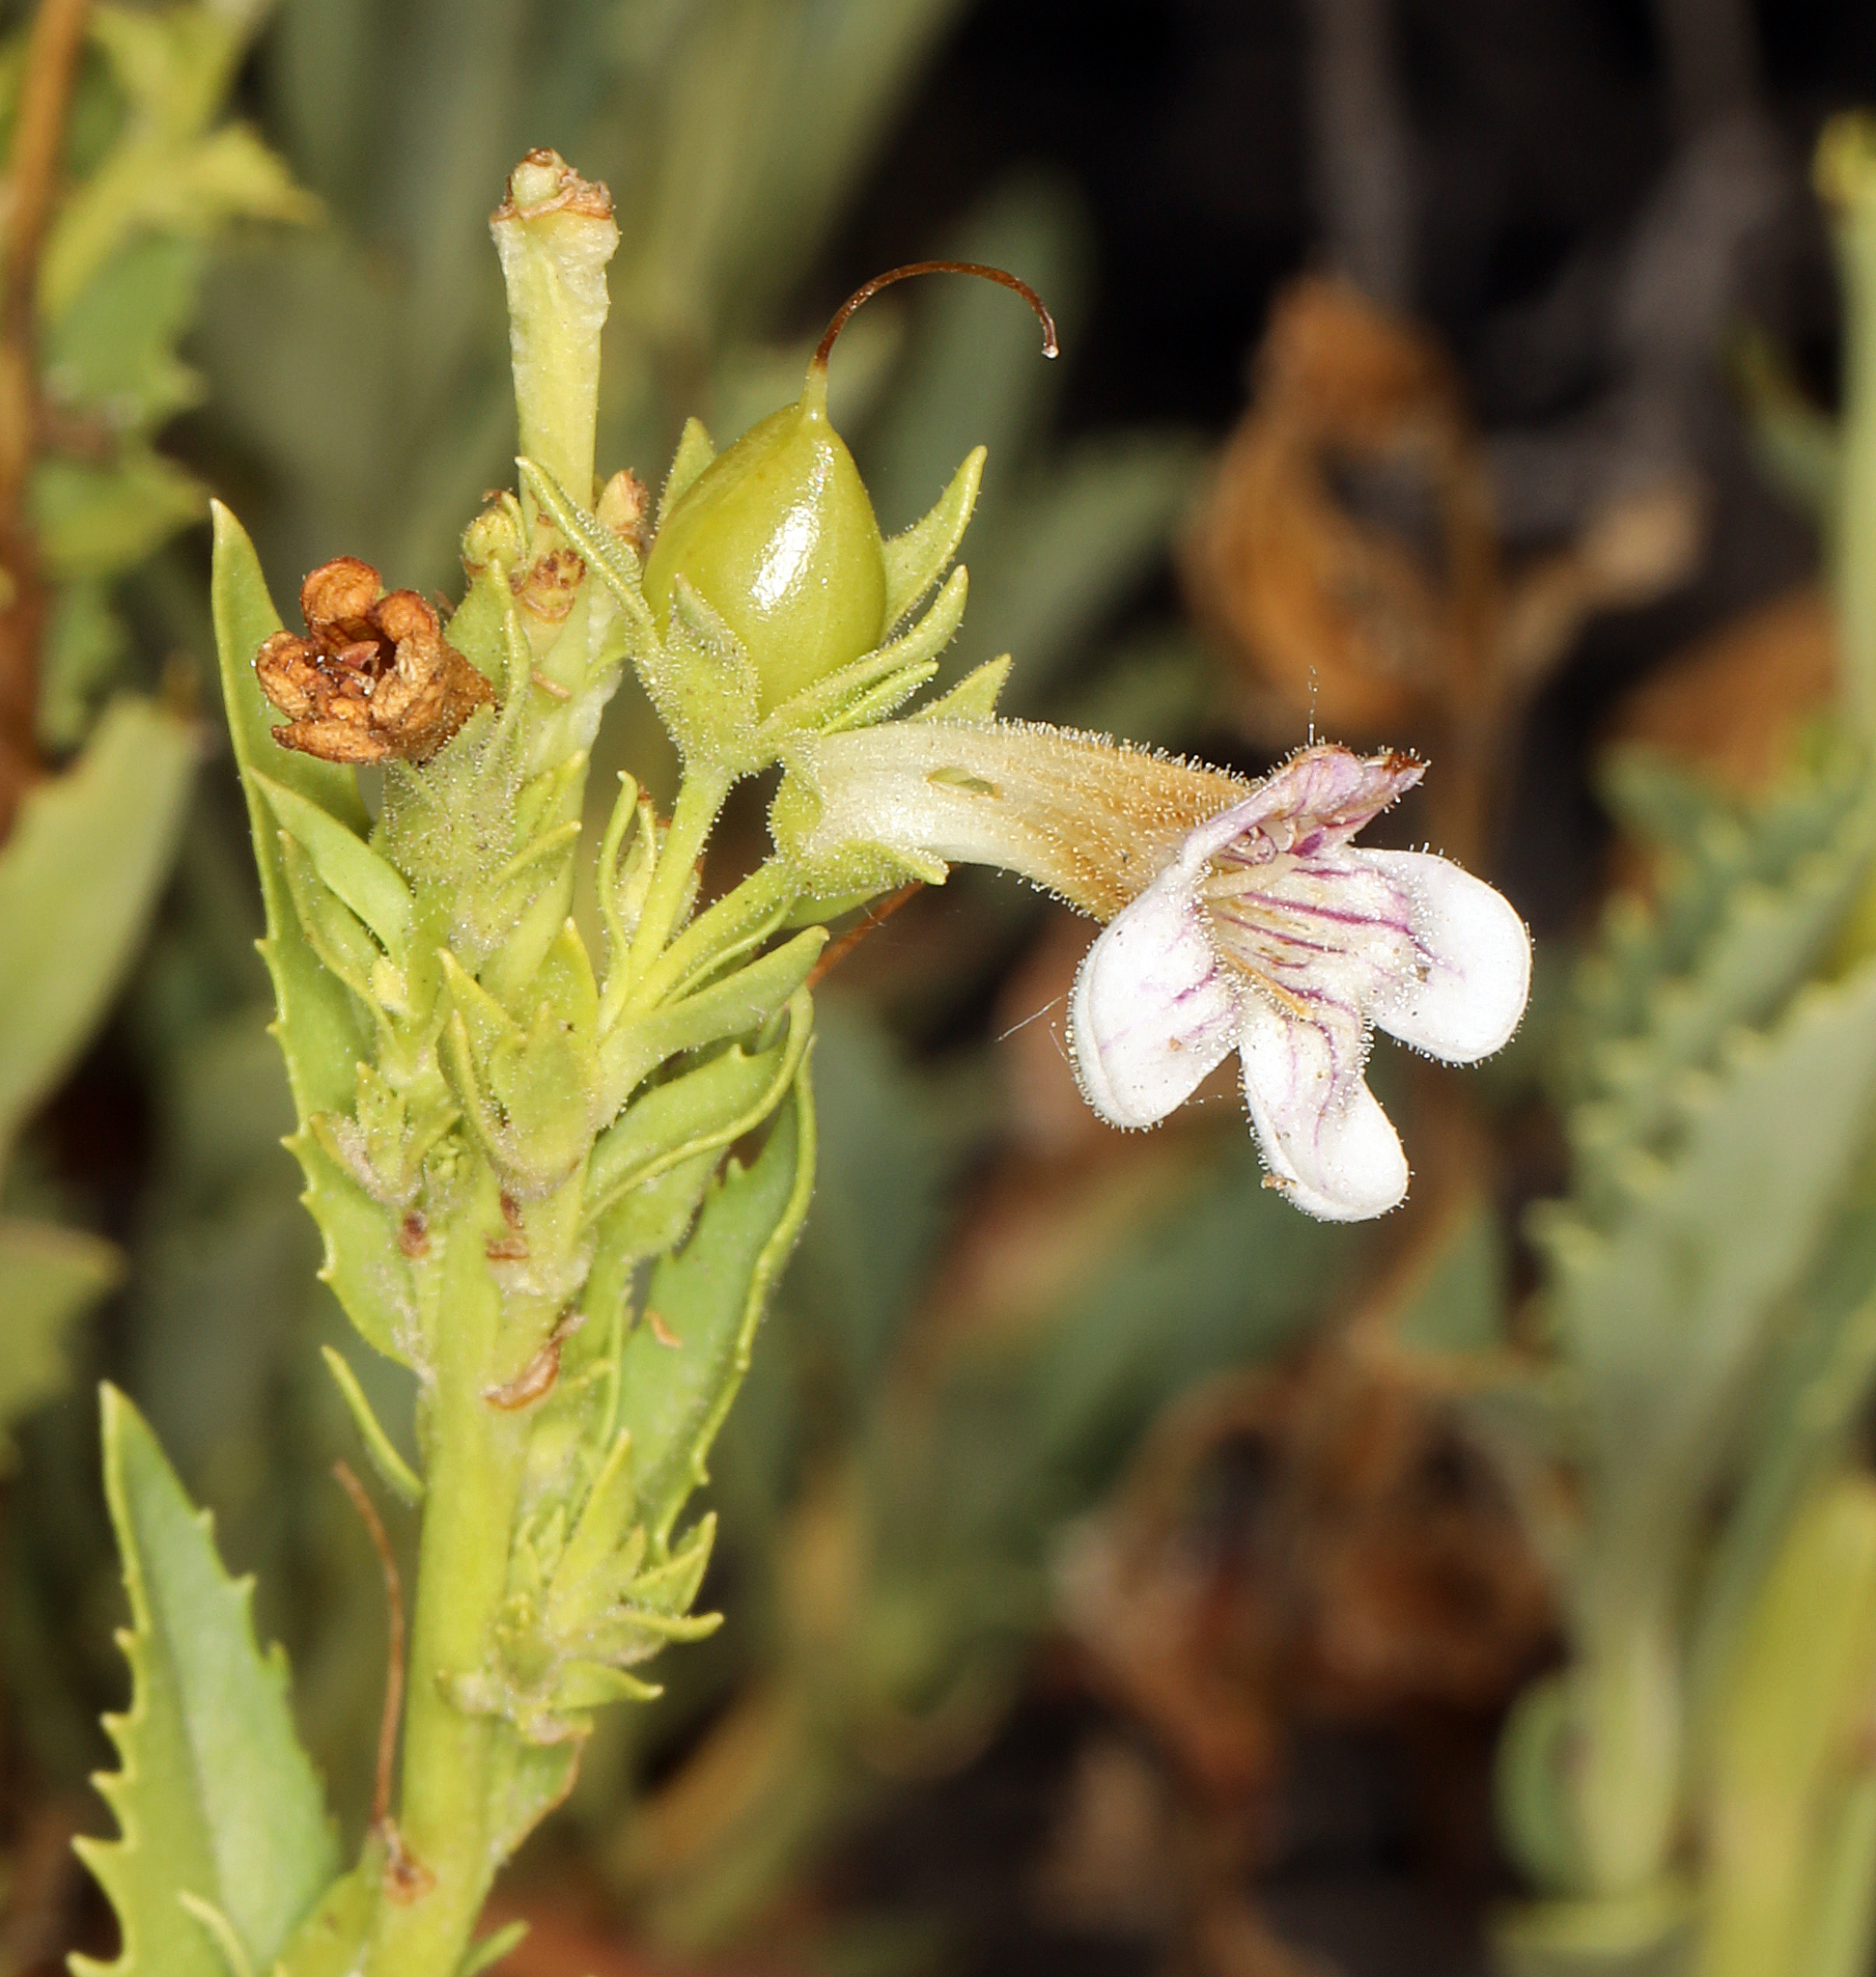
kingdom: Plantae
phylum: Tracheophyta
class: Magnoliopsida
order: Lamiales
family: Plantaginaceae
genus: Penstemon
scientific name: Penstemon deustus
